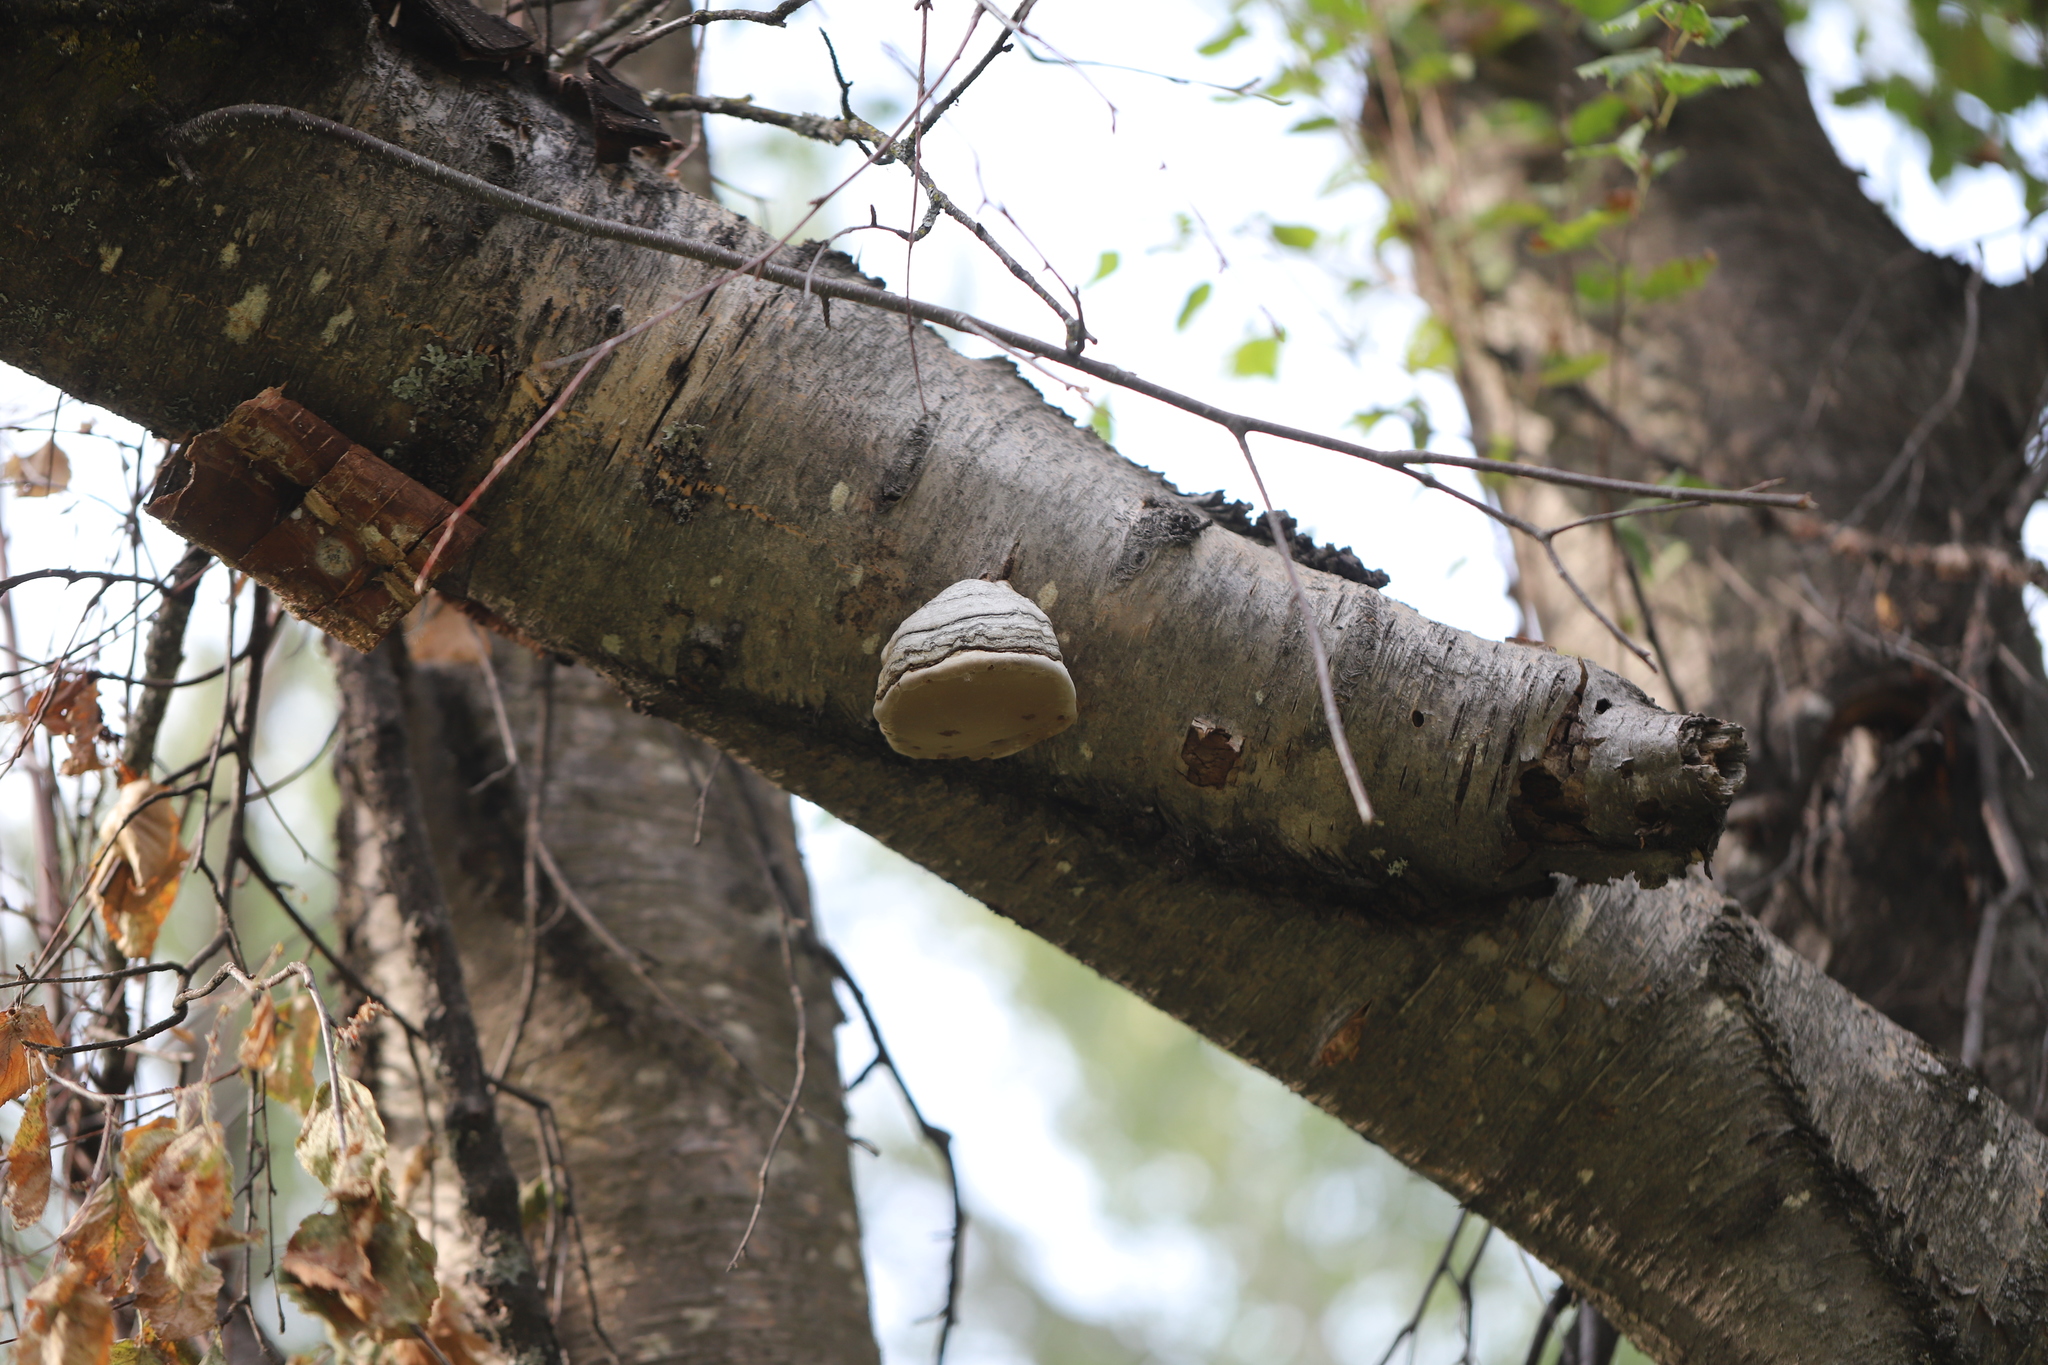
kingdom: Fungi
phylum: Basidiomycota
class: Agaricomycetes
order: Polyporales
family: Polyporaceae
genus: Fomes
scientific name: Fomes fomentarius
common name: Hoof fungus
